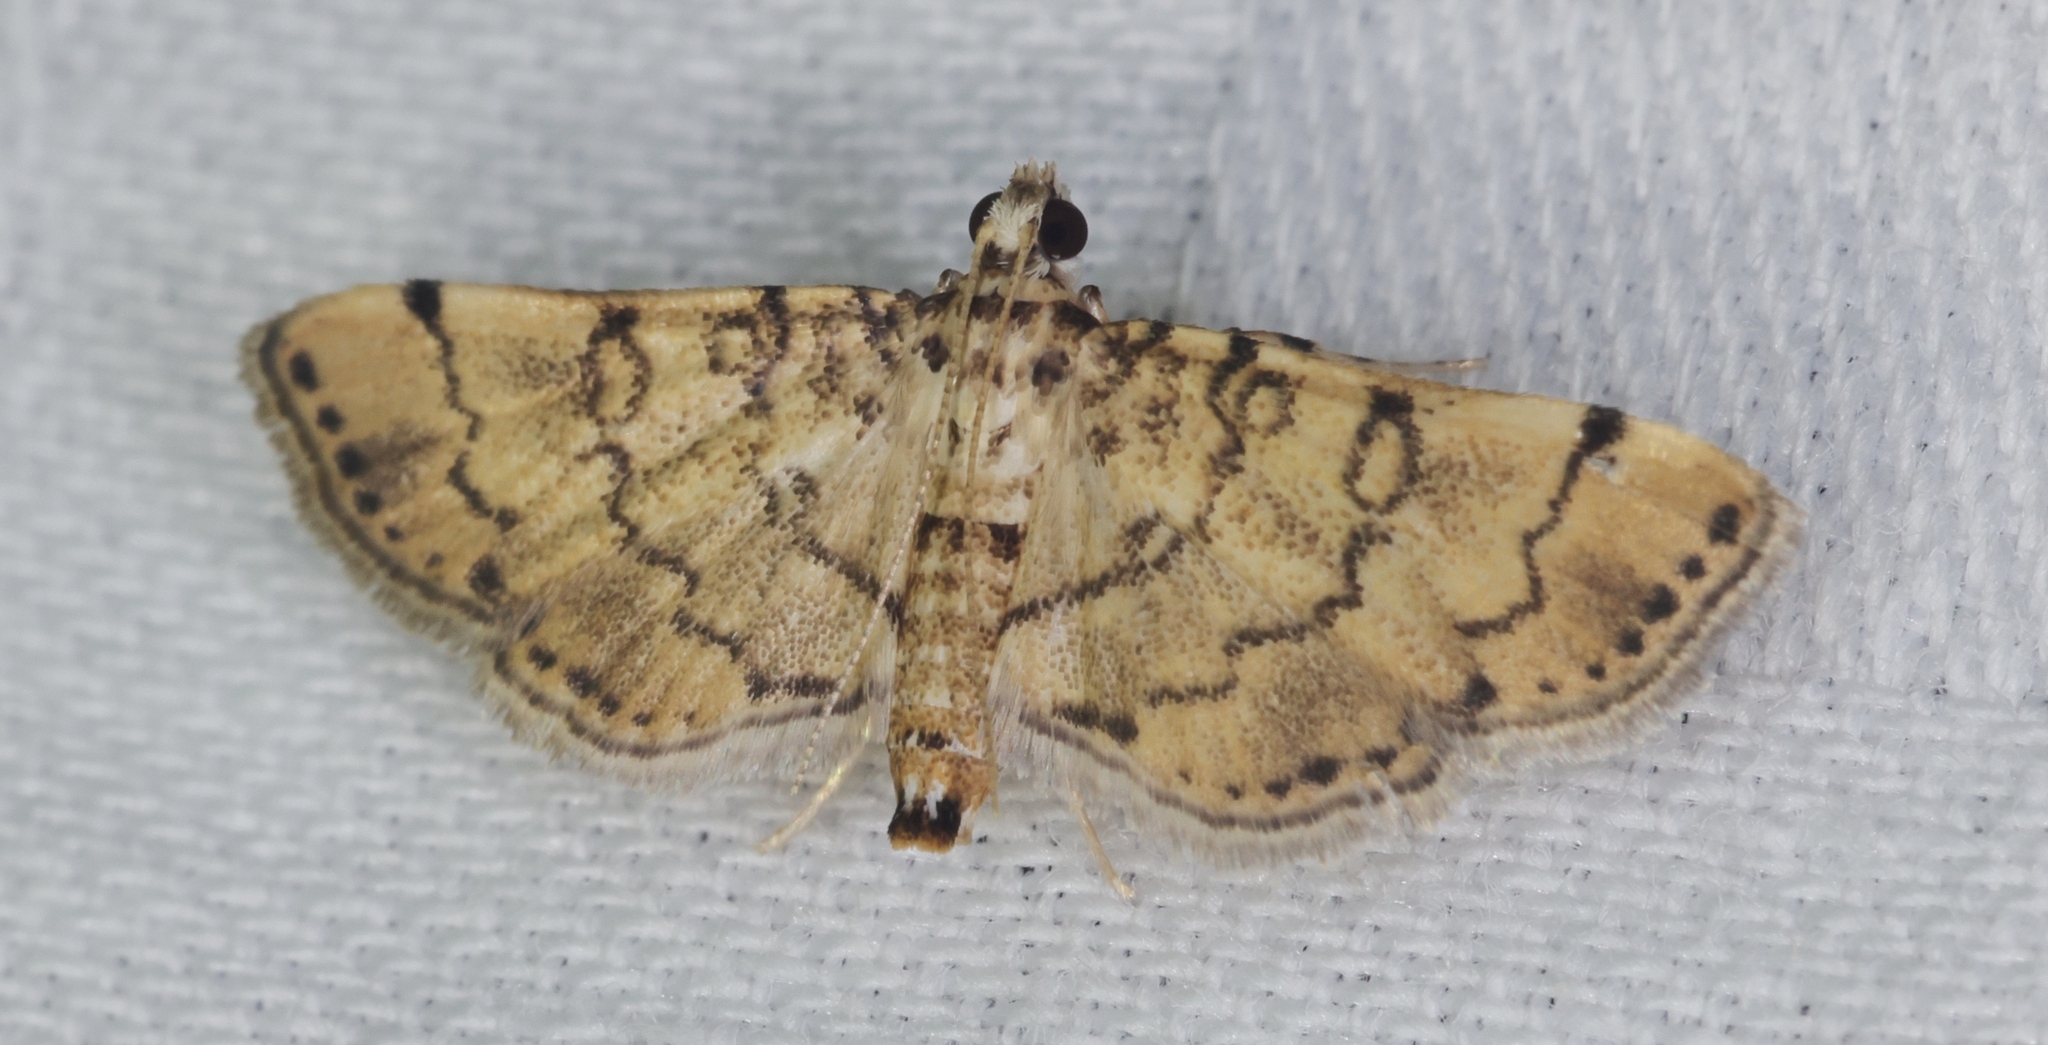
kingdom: Animalia
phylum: Arthropoda
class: Insecta
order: Lepidoptera
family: Crambidae
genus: Lamprosema
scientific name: Lamprosema tampiusalis
